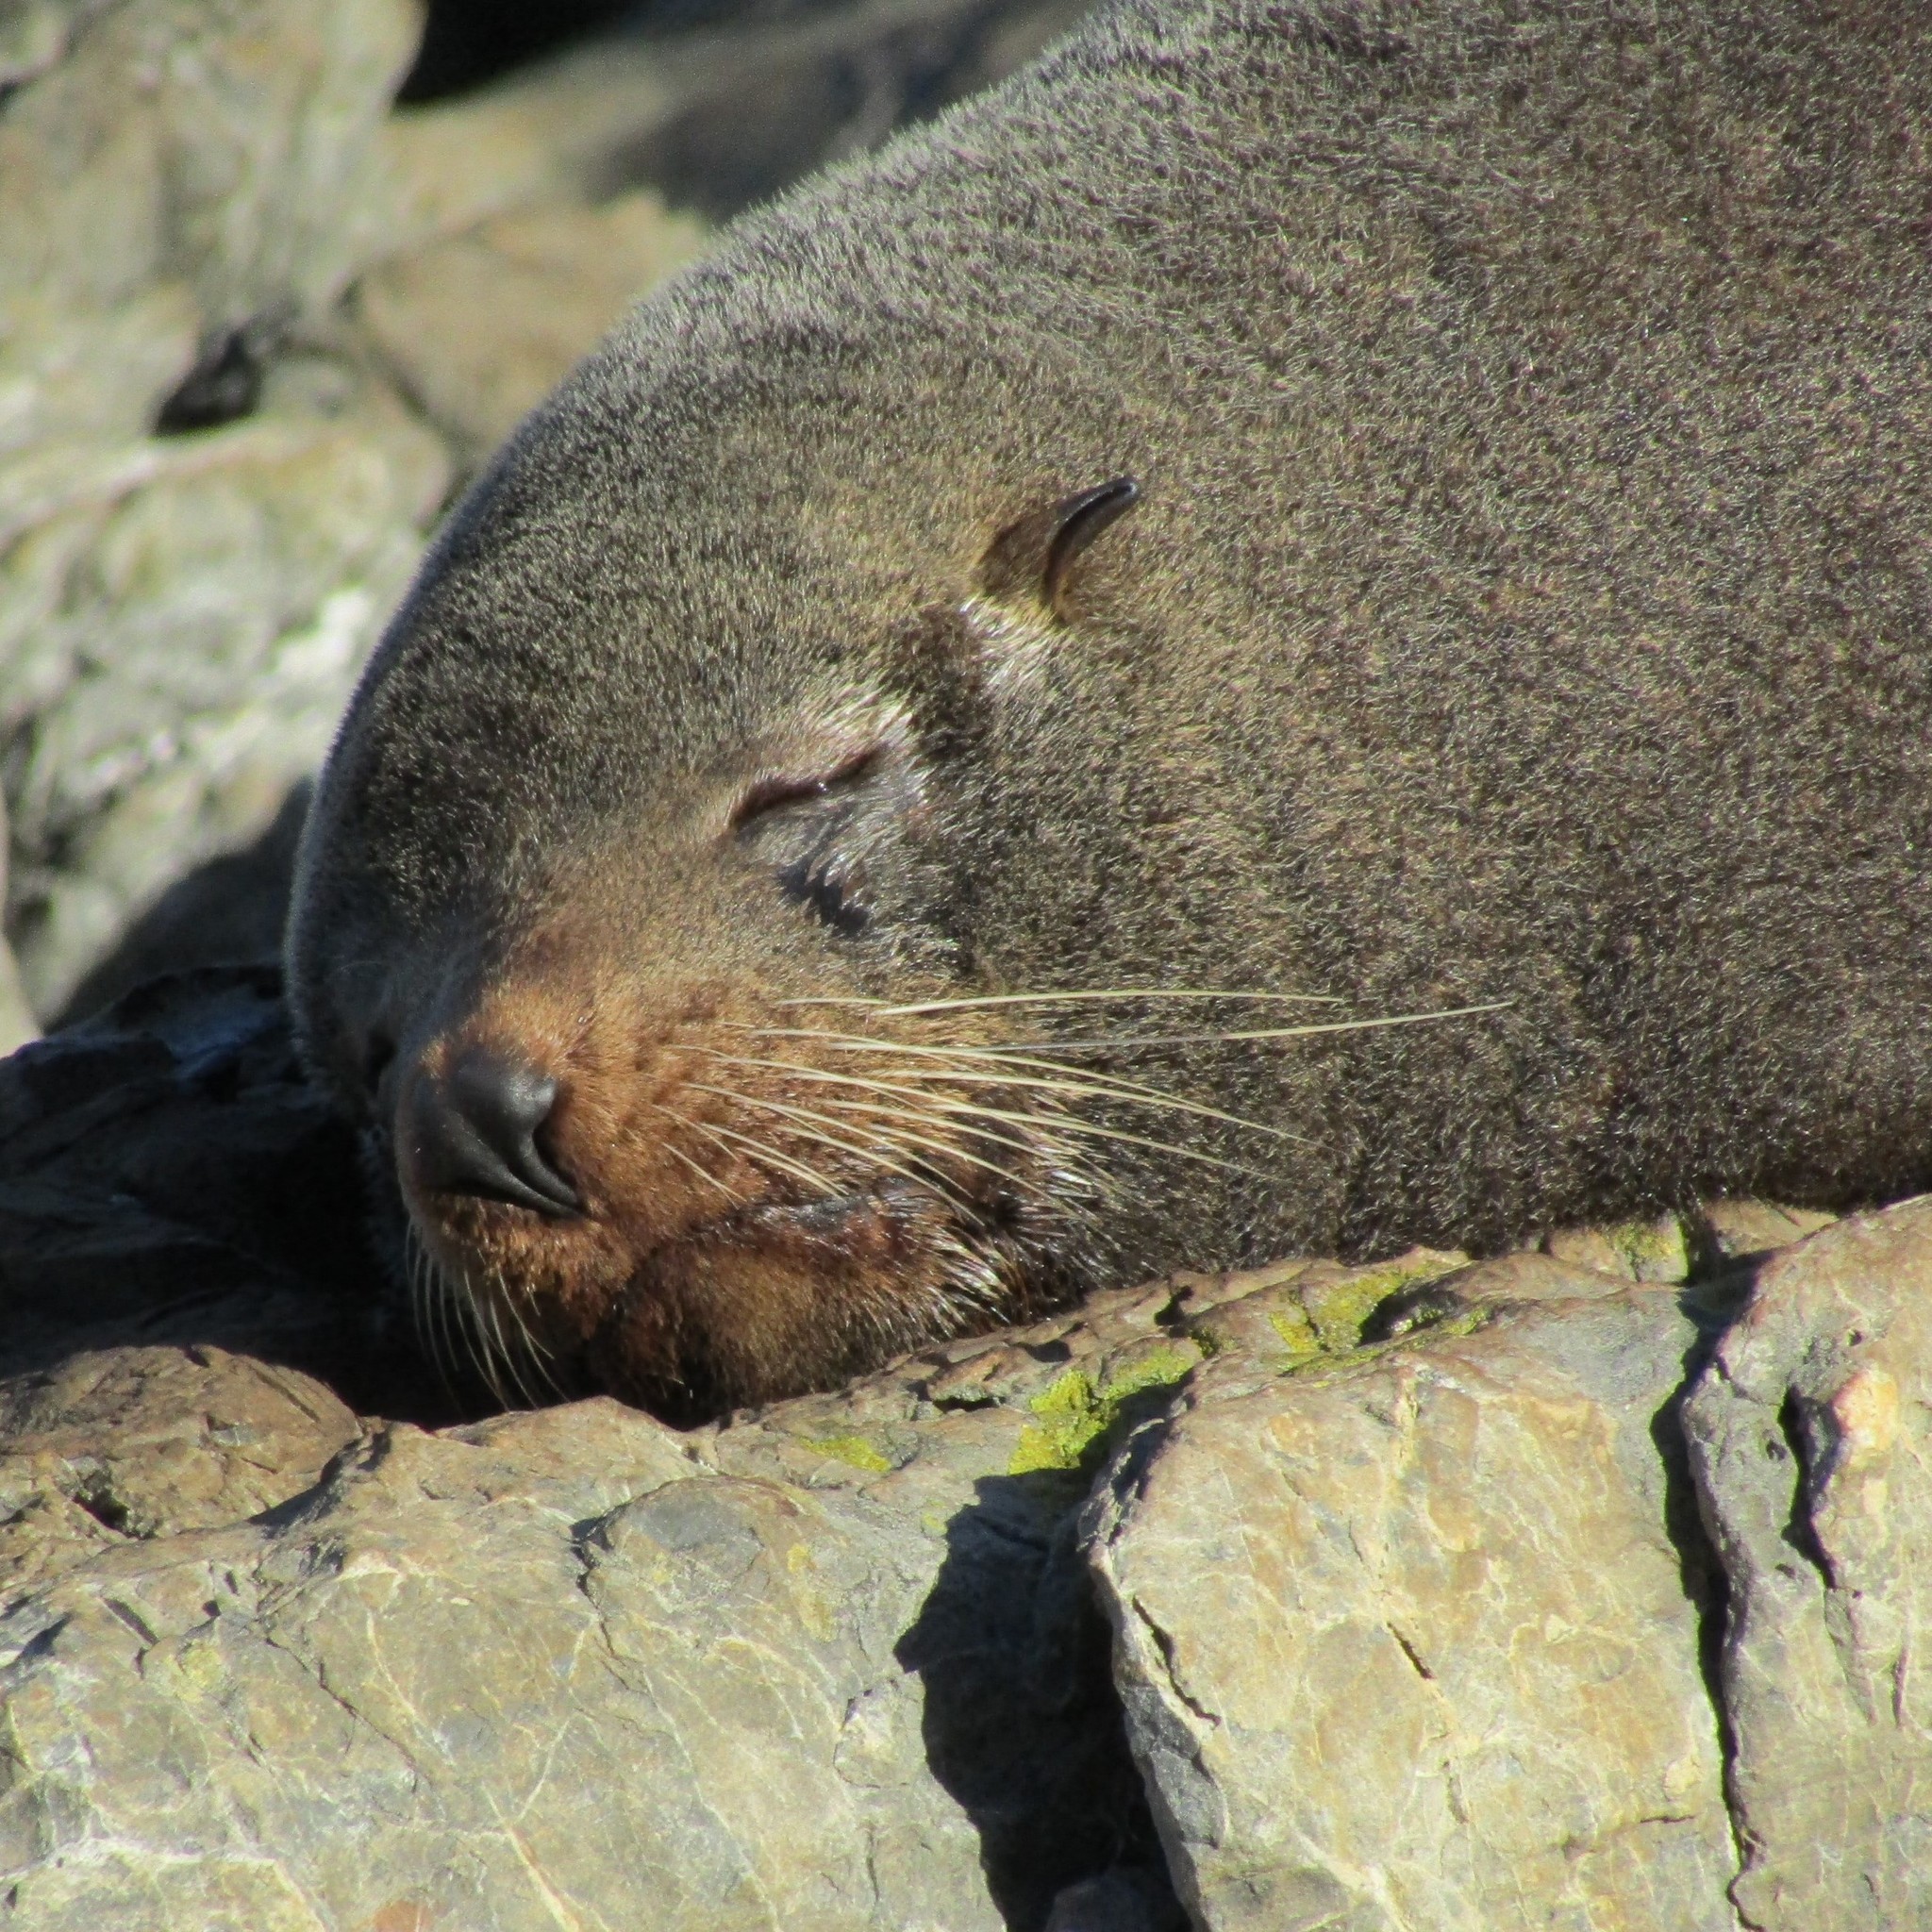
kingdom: Animalia
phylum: Chordata
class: Mammalia
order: Carnivora
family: Otariidae
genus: Arctocephalus
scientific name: Arctocephalus forsteri
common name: New zealand fur seal
